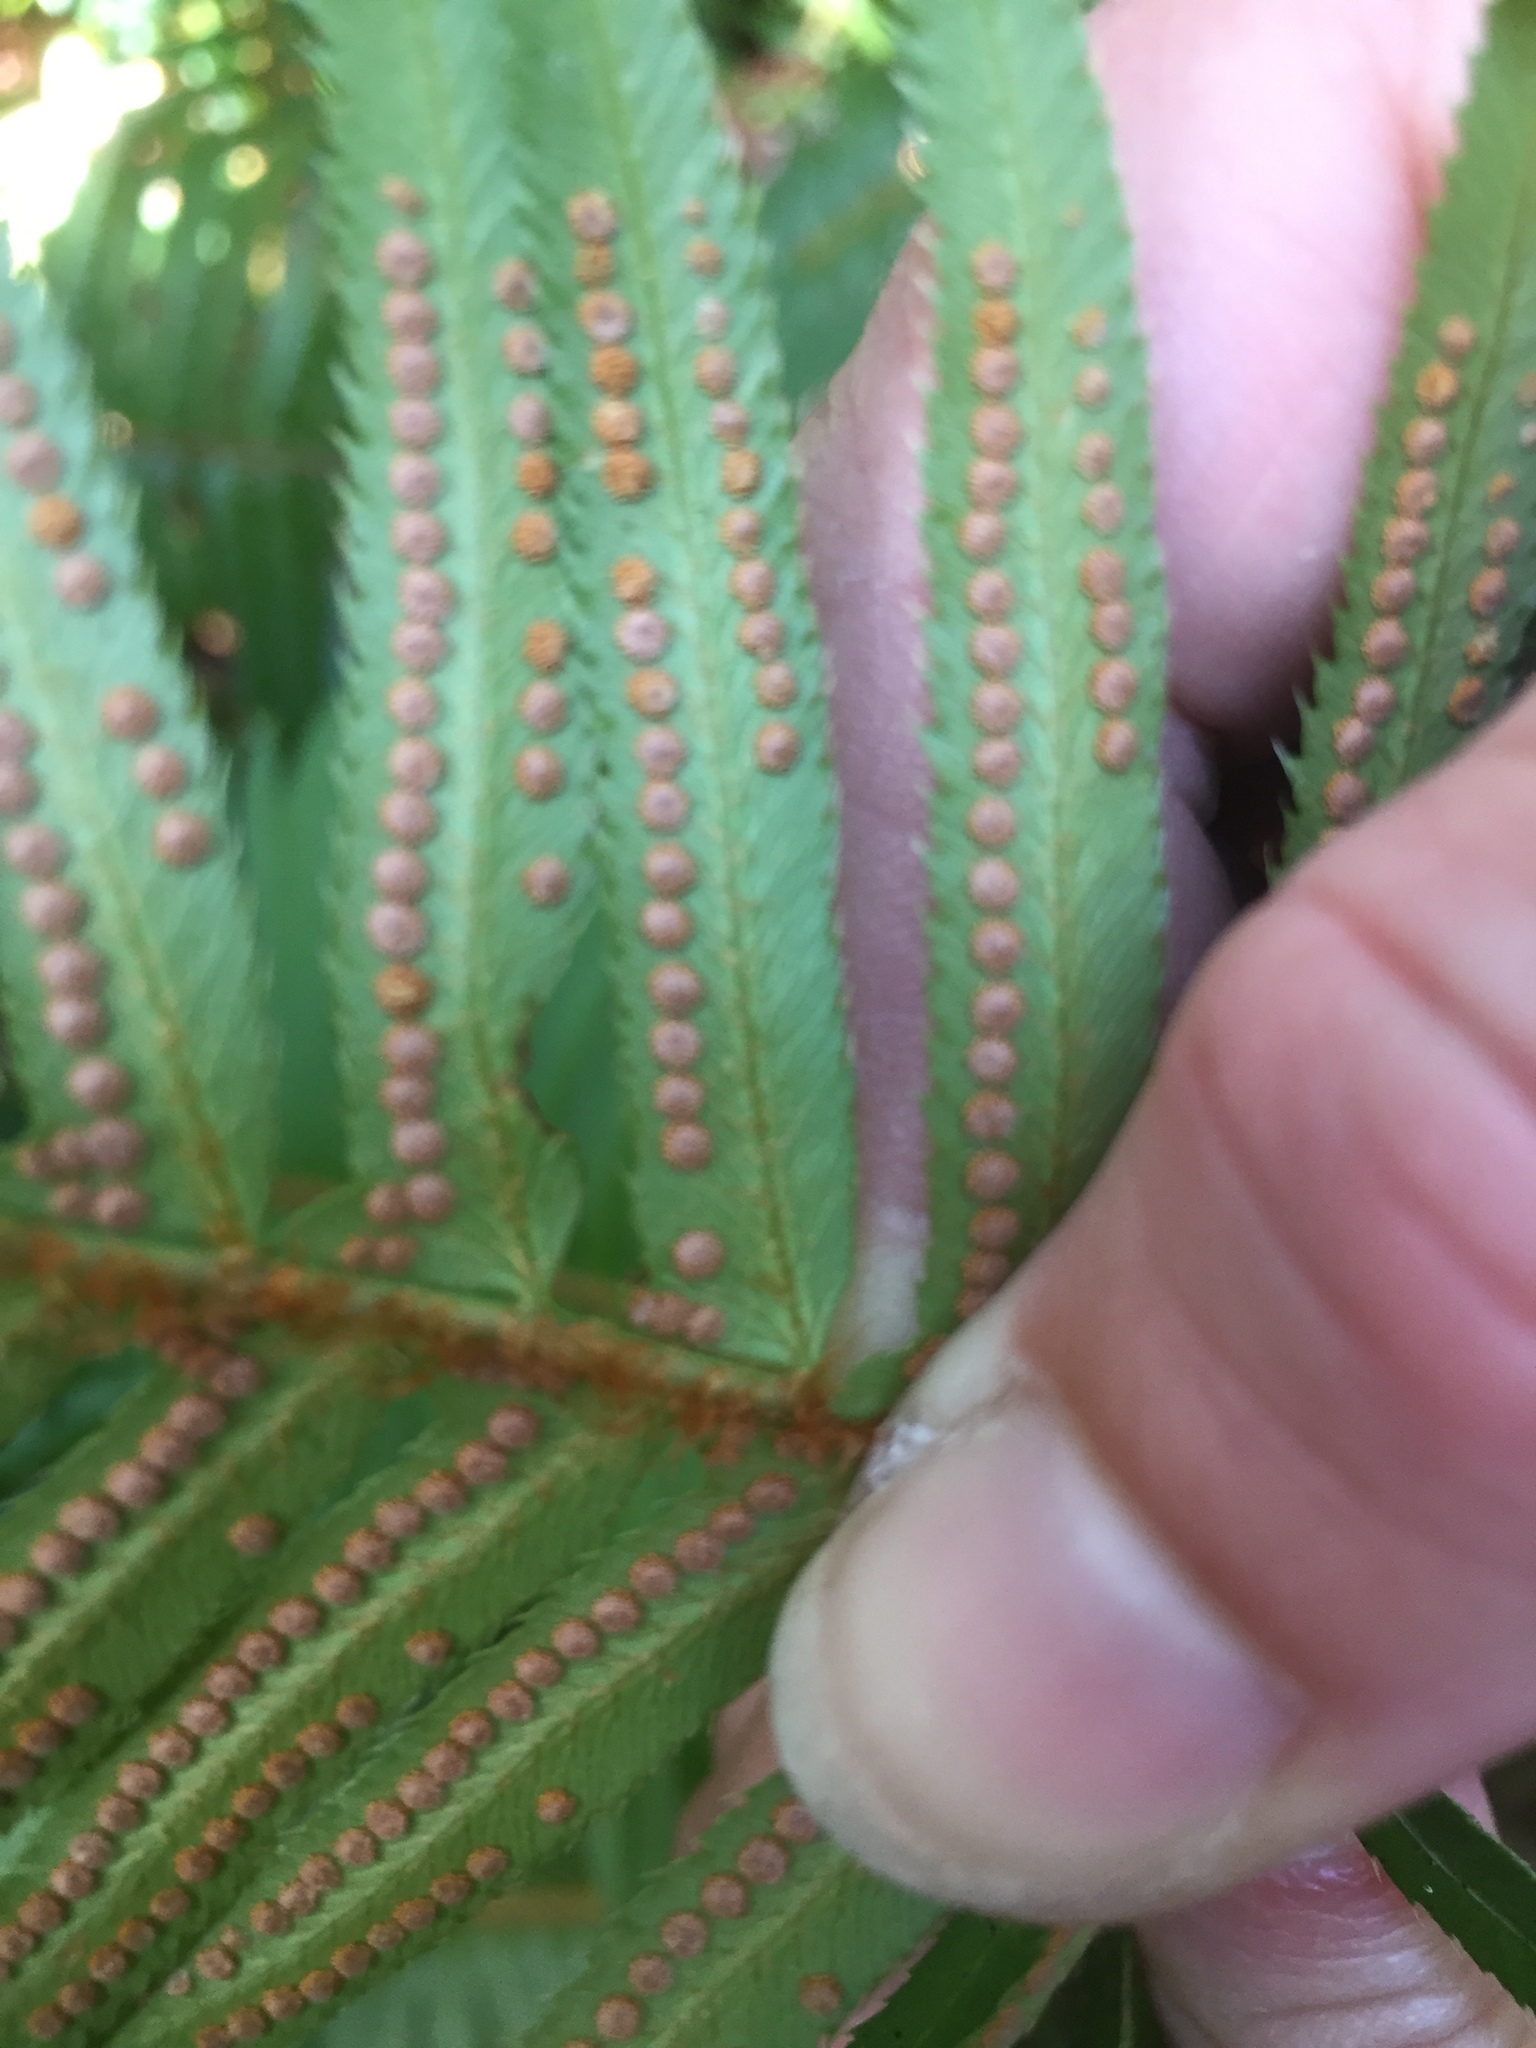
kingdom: Plantae
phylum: Tracheophyta
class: Polypodiopsida
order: Polypodiales
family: Dryopteridaceae
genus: Polystichum
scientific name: Polystichum munitum
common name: Western sword-fern
